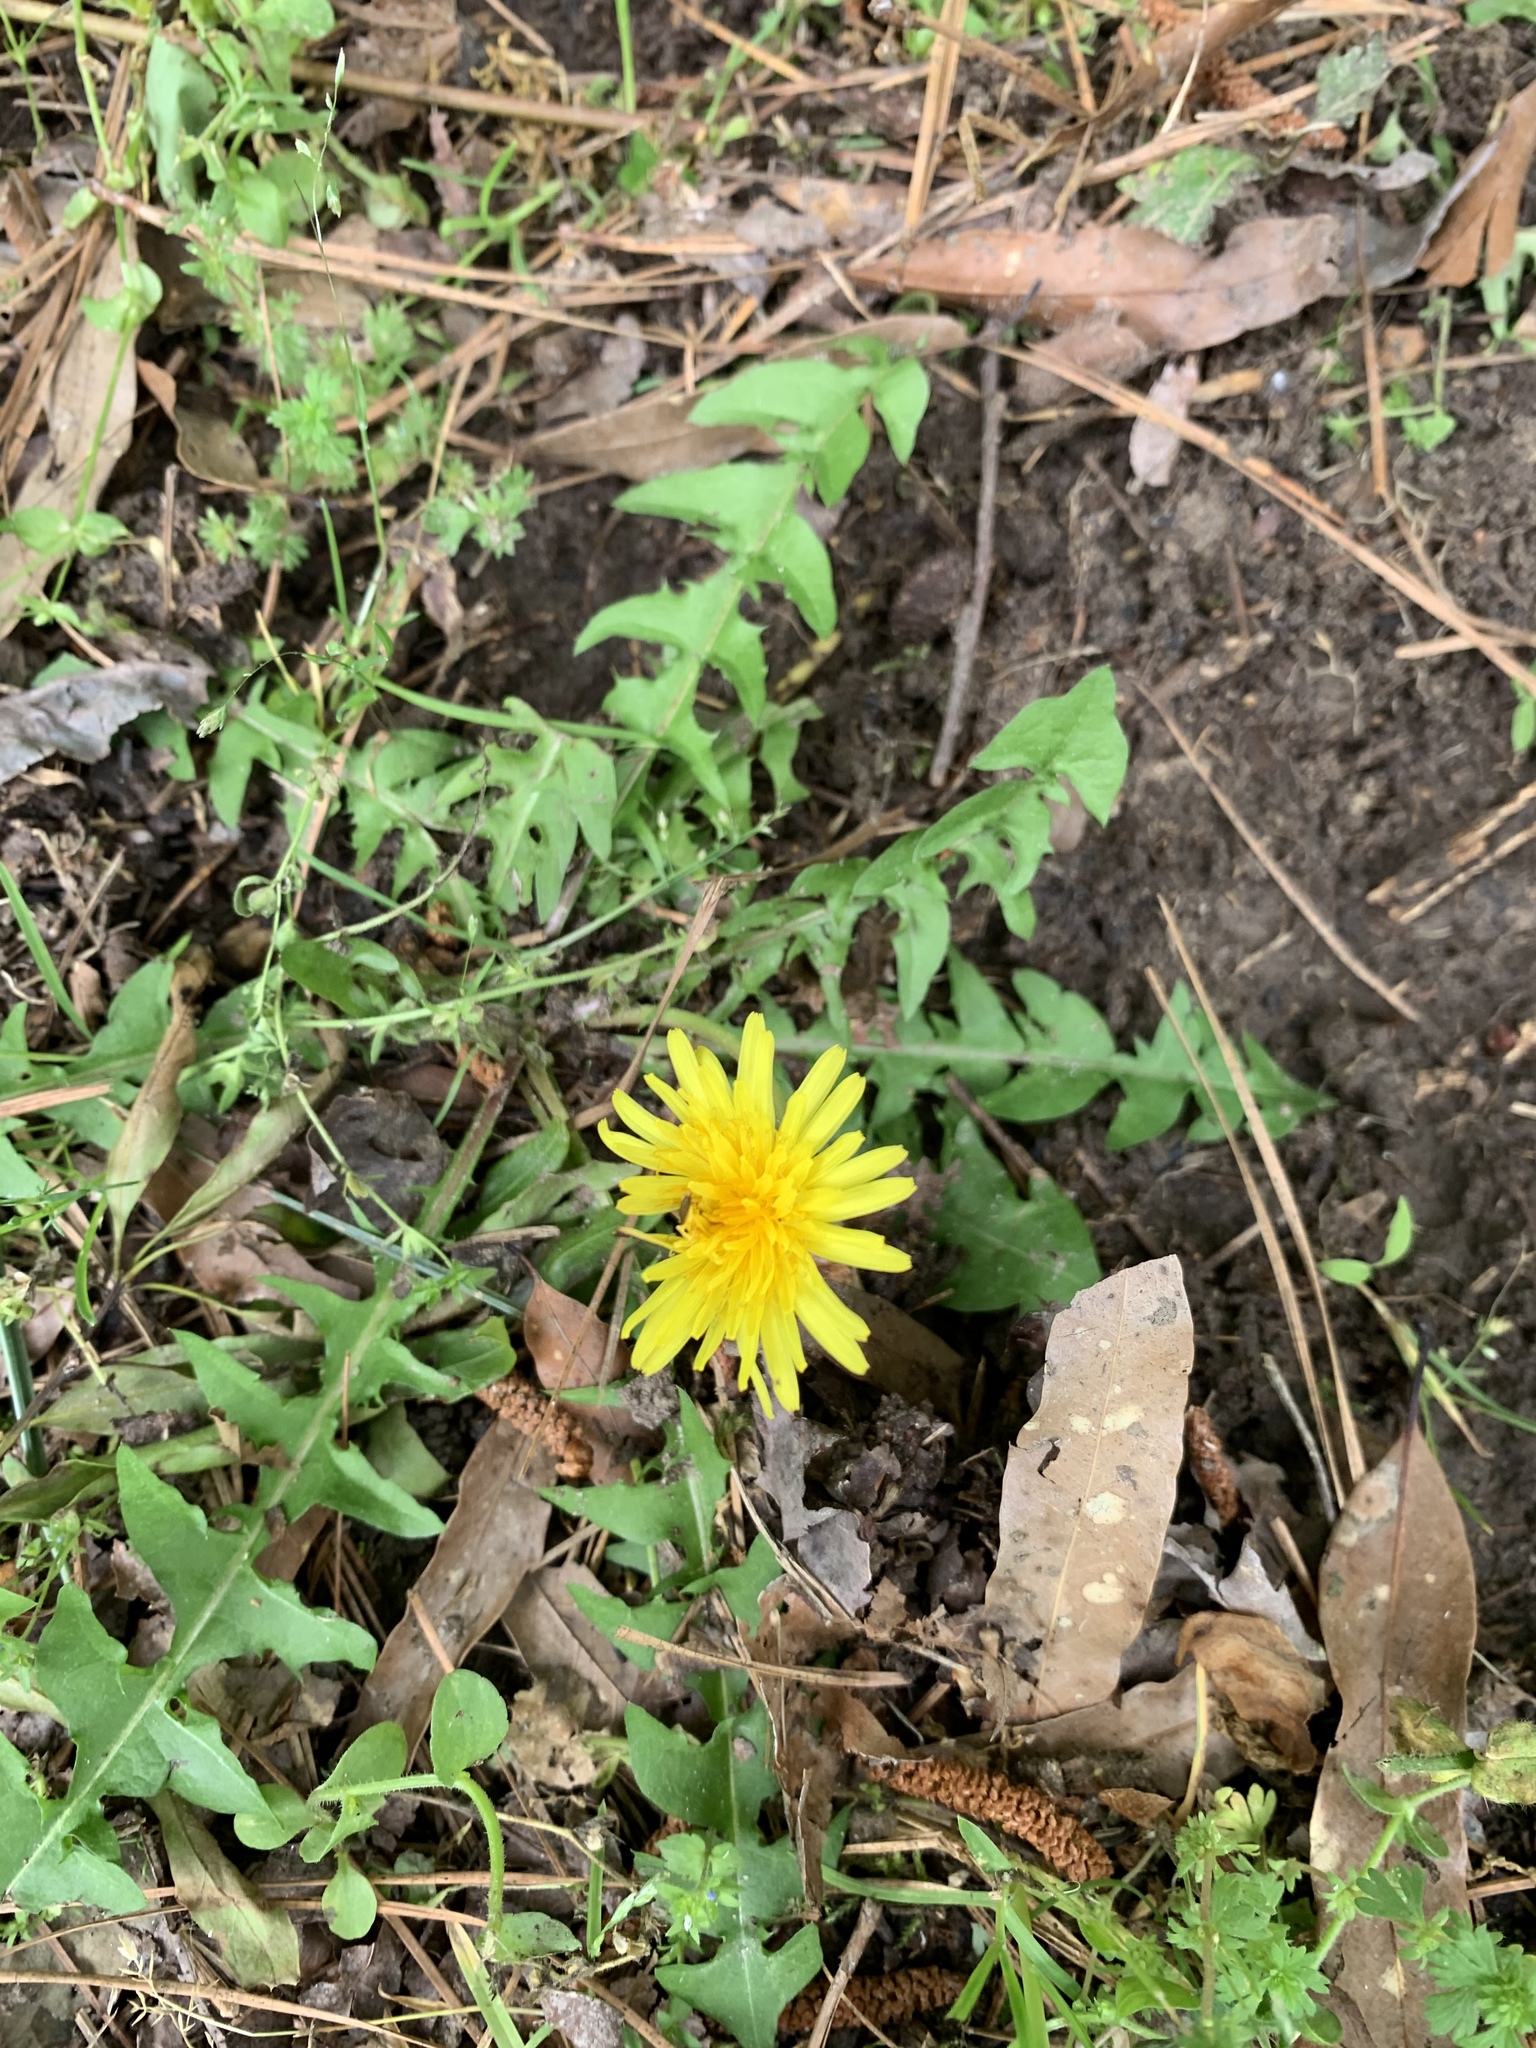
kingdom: Plantae
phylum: Tracheophyta
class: Magnoliopsida
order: Asterales
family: Asteraceae
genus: Taraxacum
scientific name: Taraxacum officinale
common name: Common dandelion
